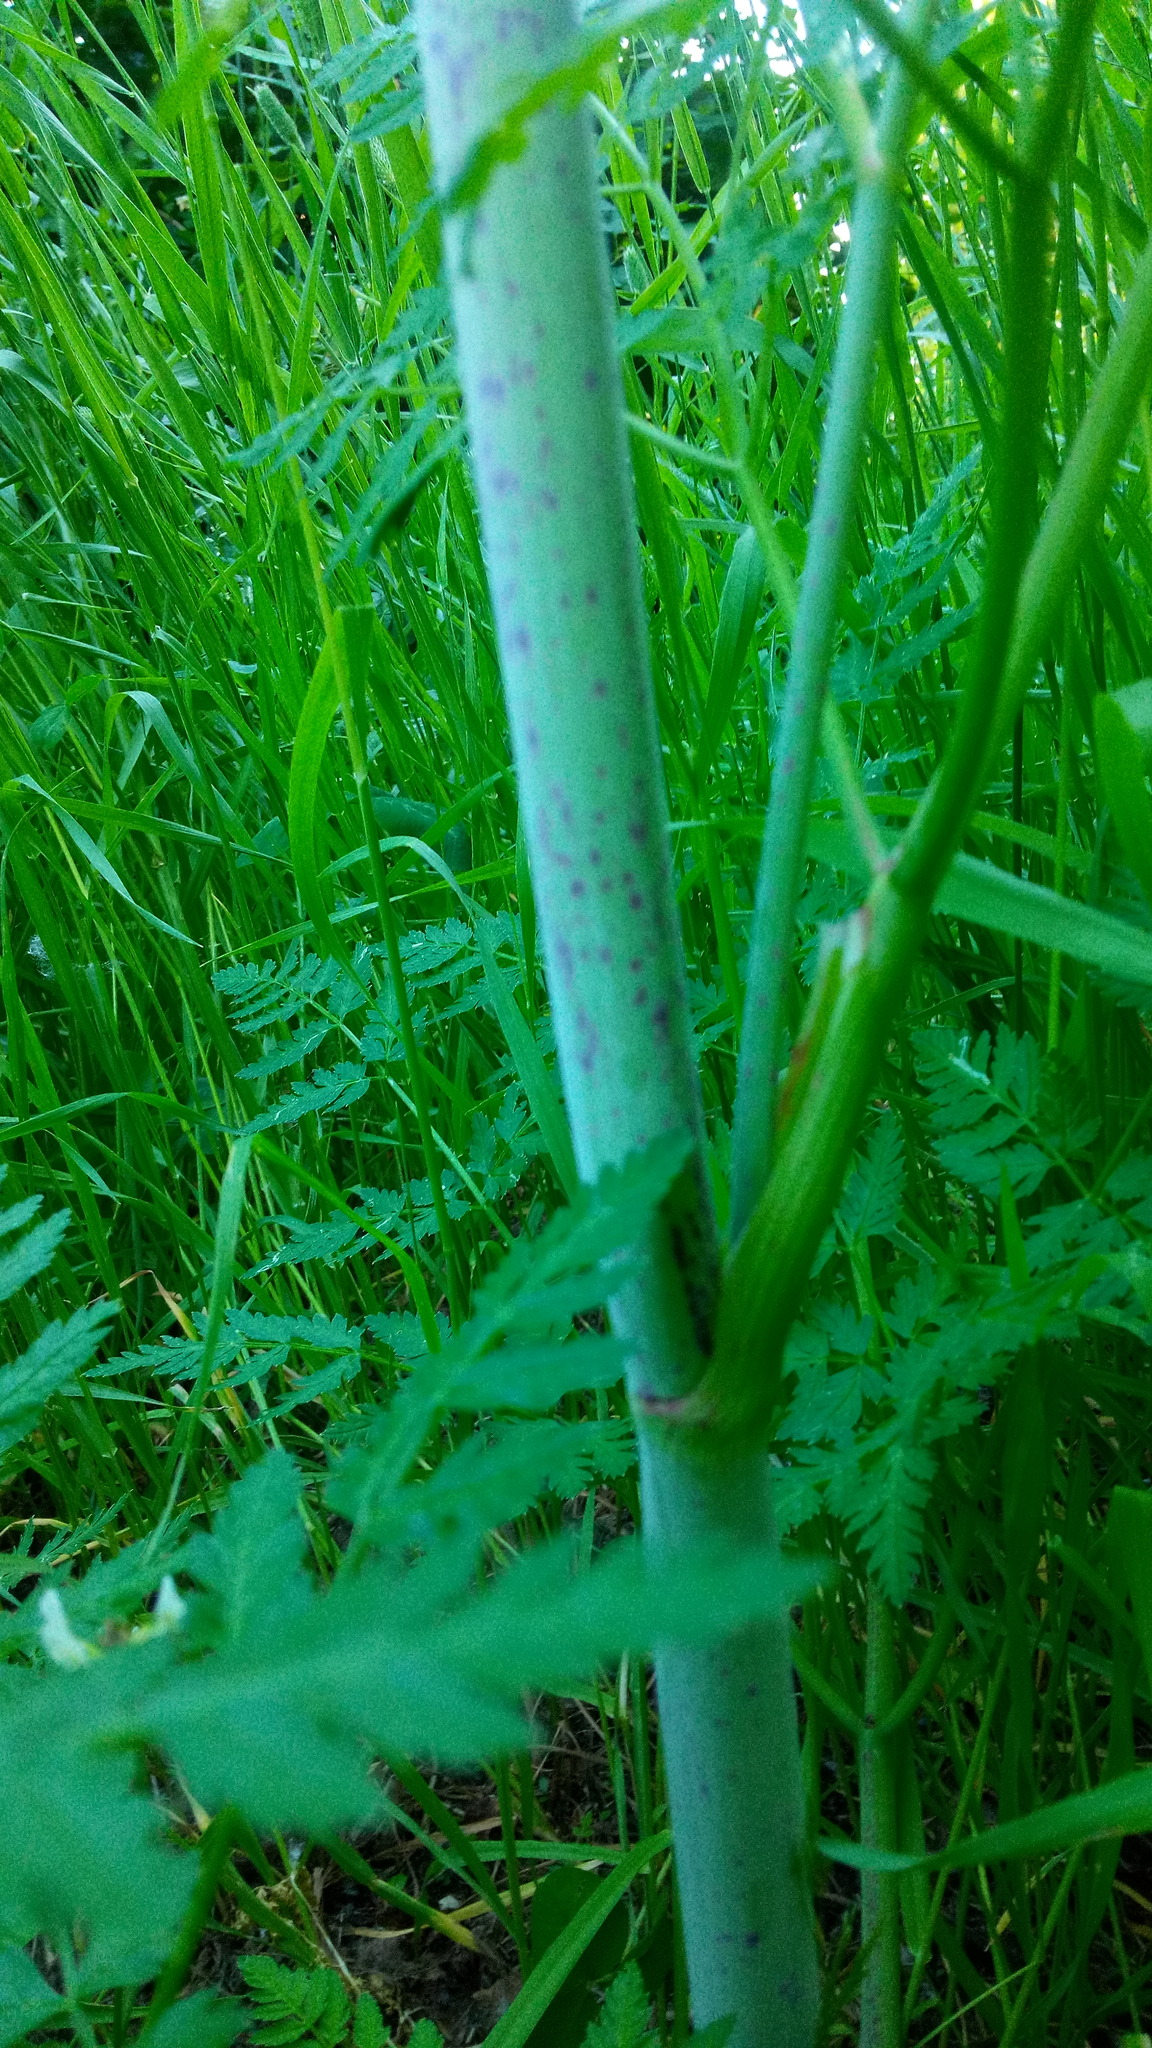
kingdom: Plantae
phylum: Tracheophyta
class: Magnoliopsida
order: Apiales
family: Apiaceae
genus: Conium
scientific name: Conium maculatum
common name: Hemlock
